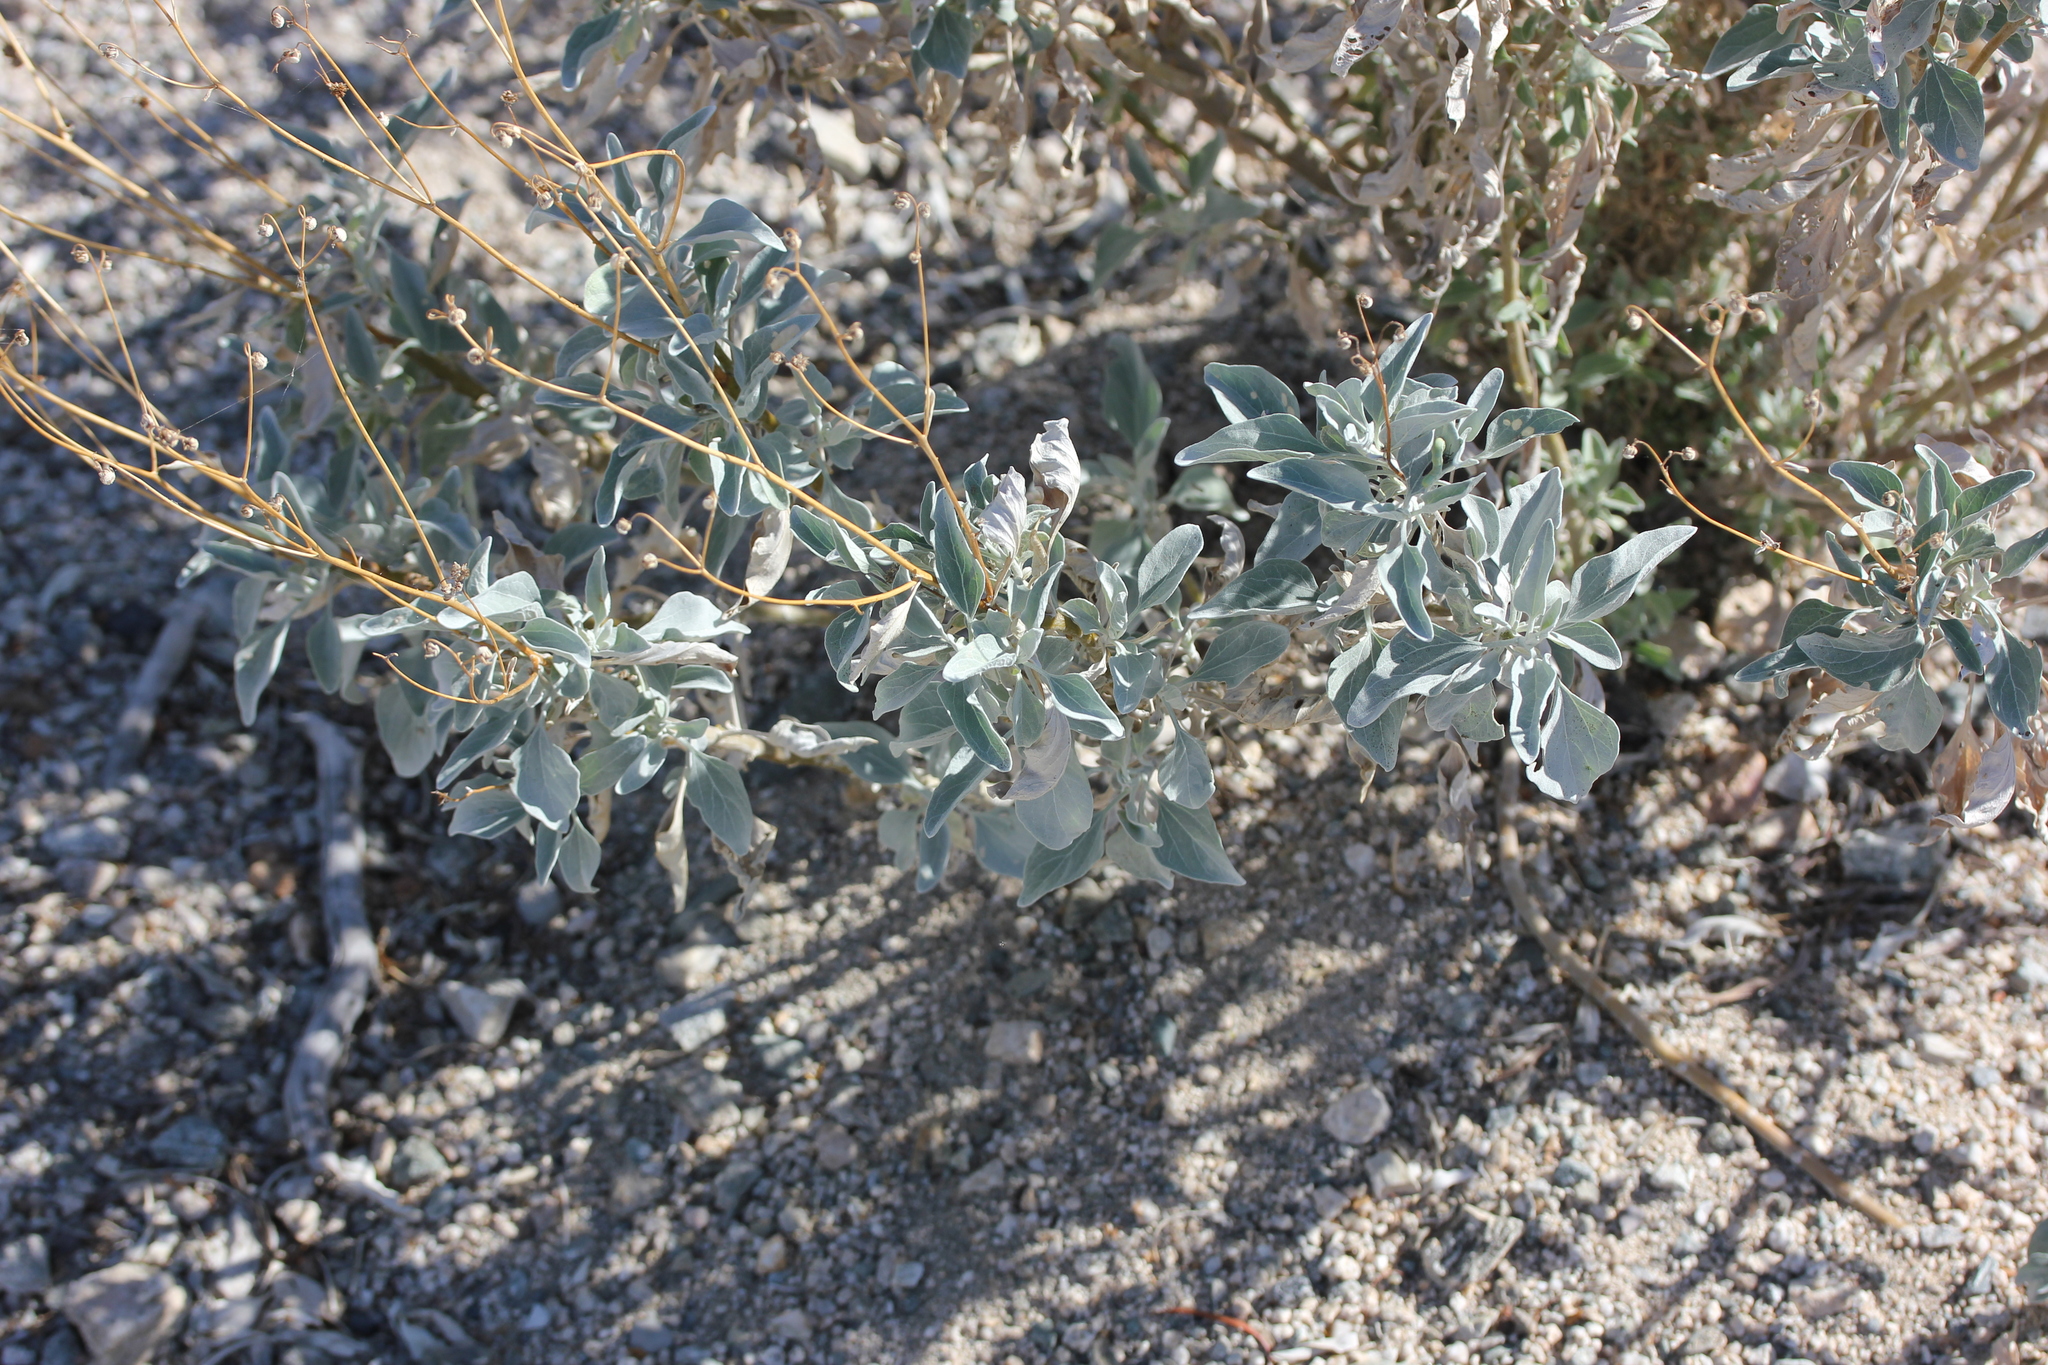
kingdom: Plantae
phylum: Tracheophyta
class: Magnoliopsida
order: Asterales
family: Asteraceae
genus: Encelia
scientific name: Encelia farinosa
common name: Brittlebush
